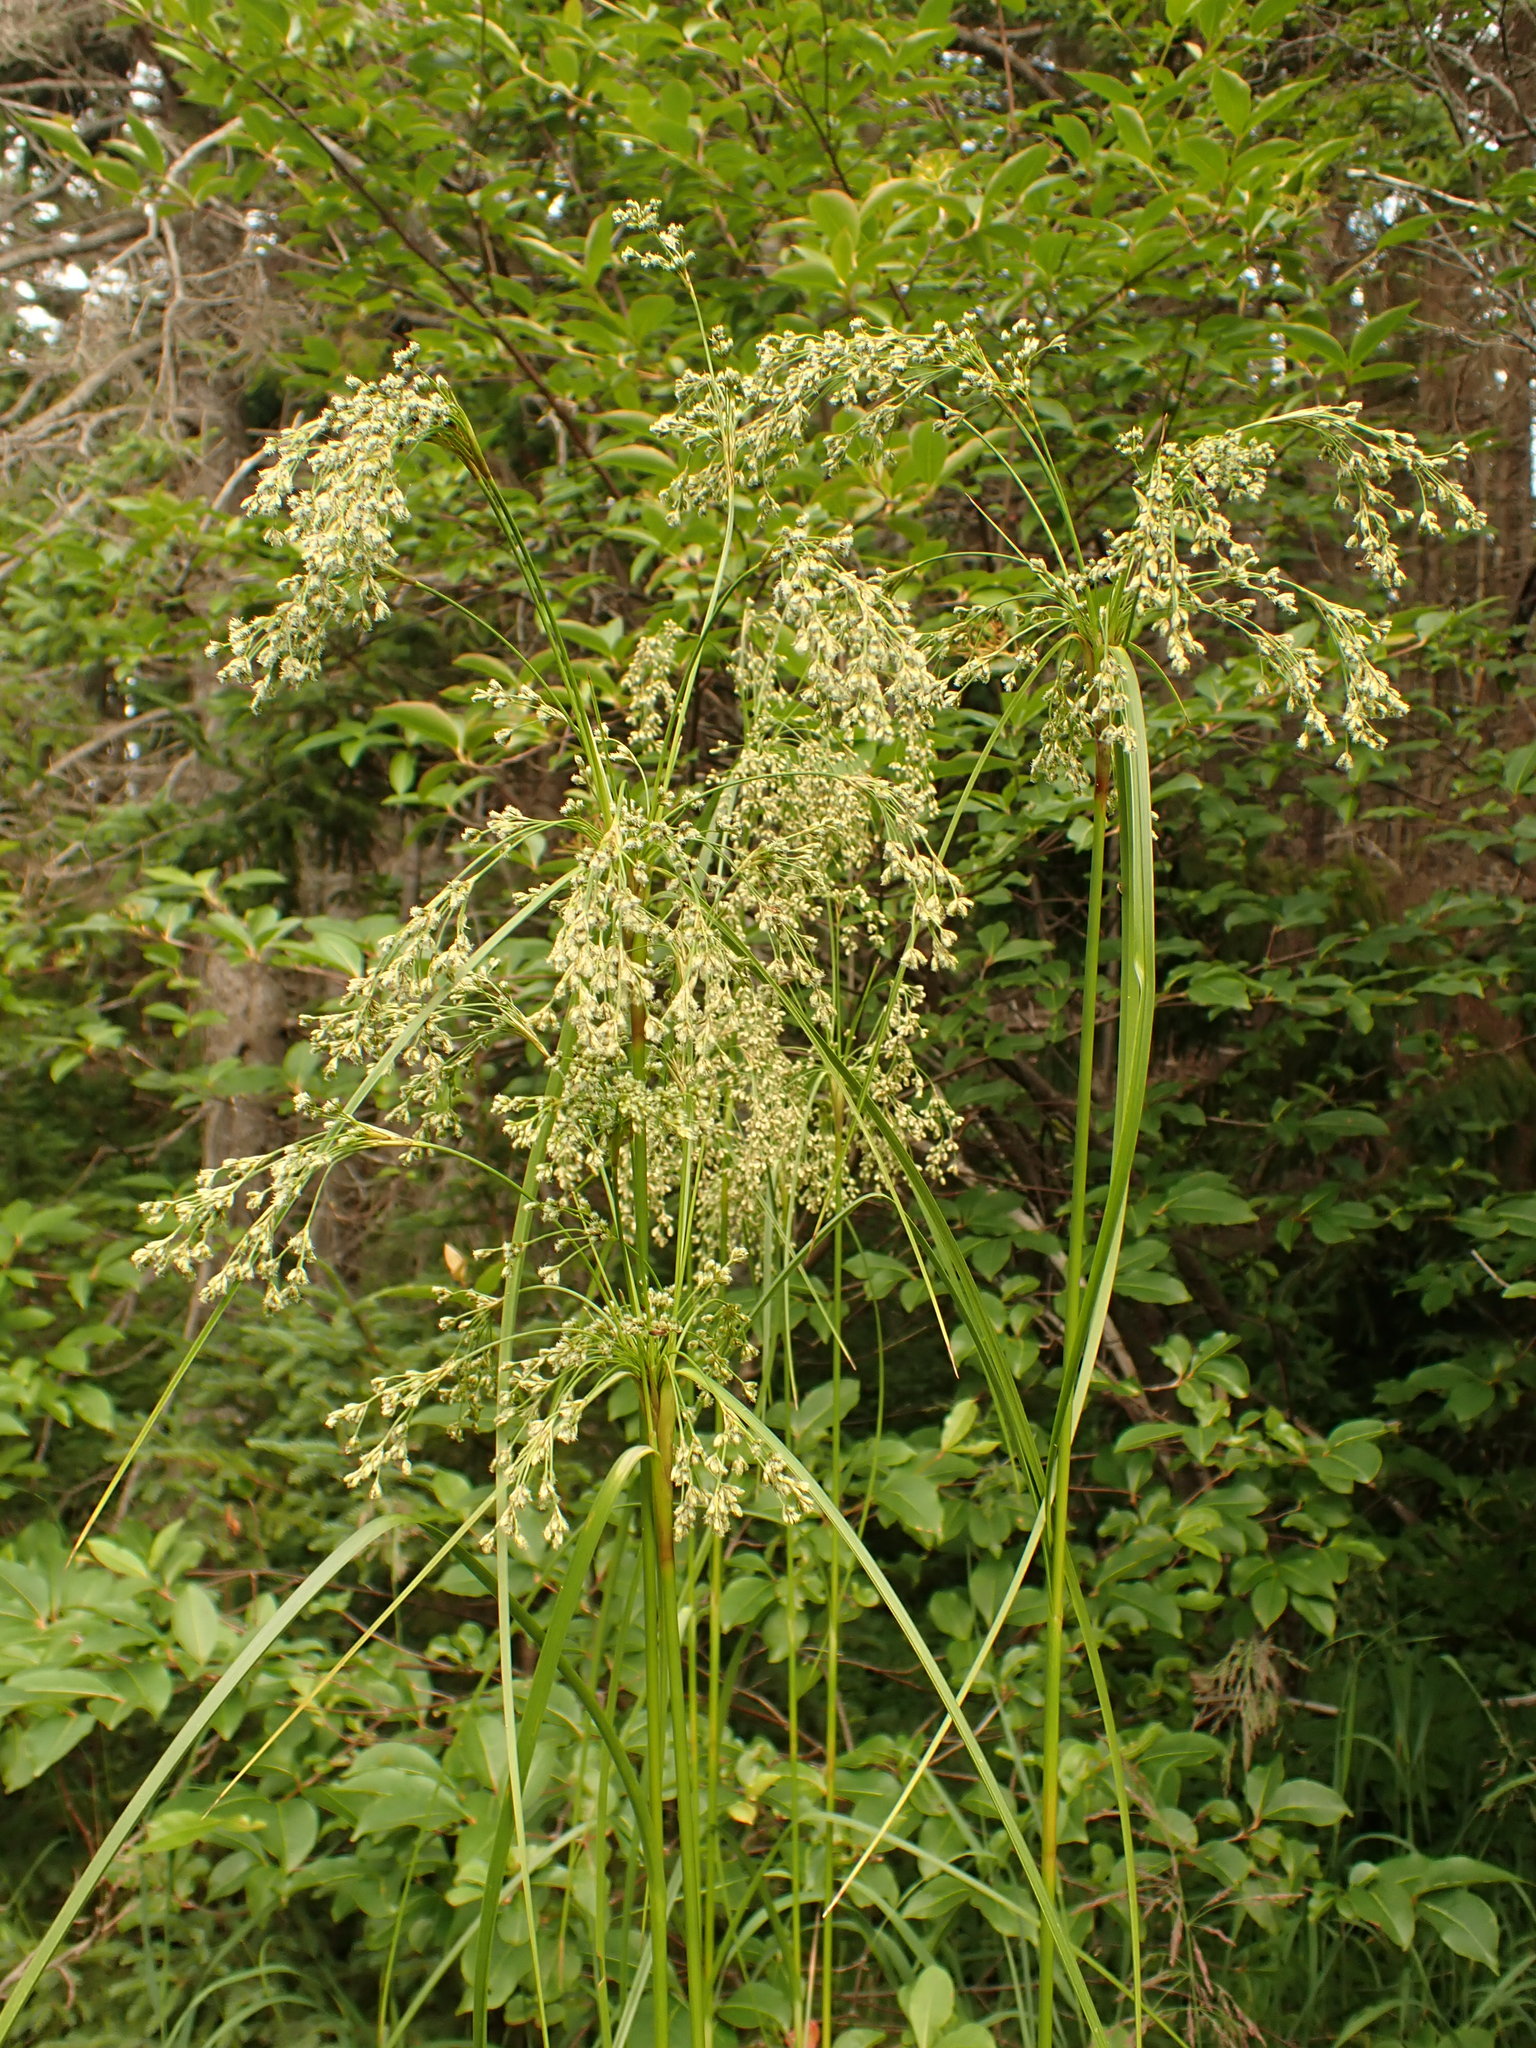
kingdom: Plantae
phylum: Tracheophyta
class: Liliopsida
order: Poales
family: Cyperaceae
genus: Scirpus
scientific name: Scirpus cyperinus
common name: Black-sheathed bulrush
